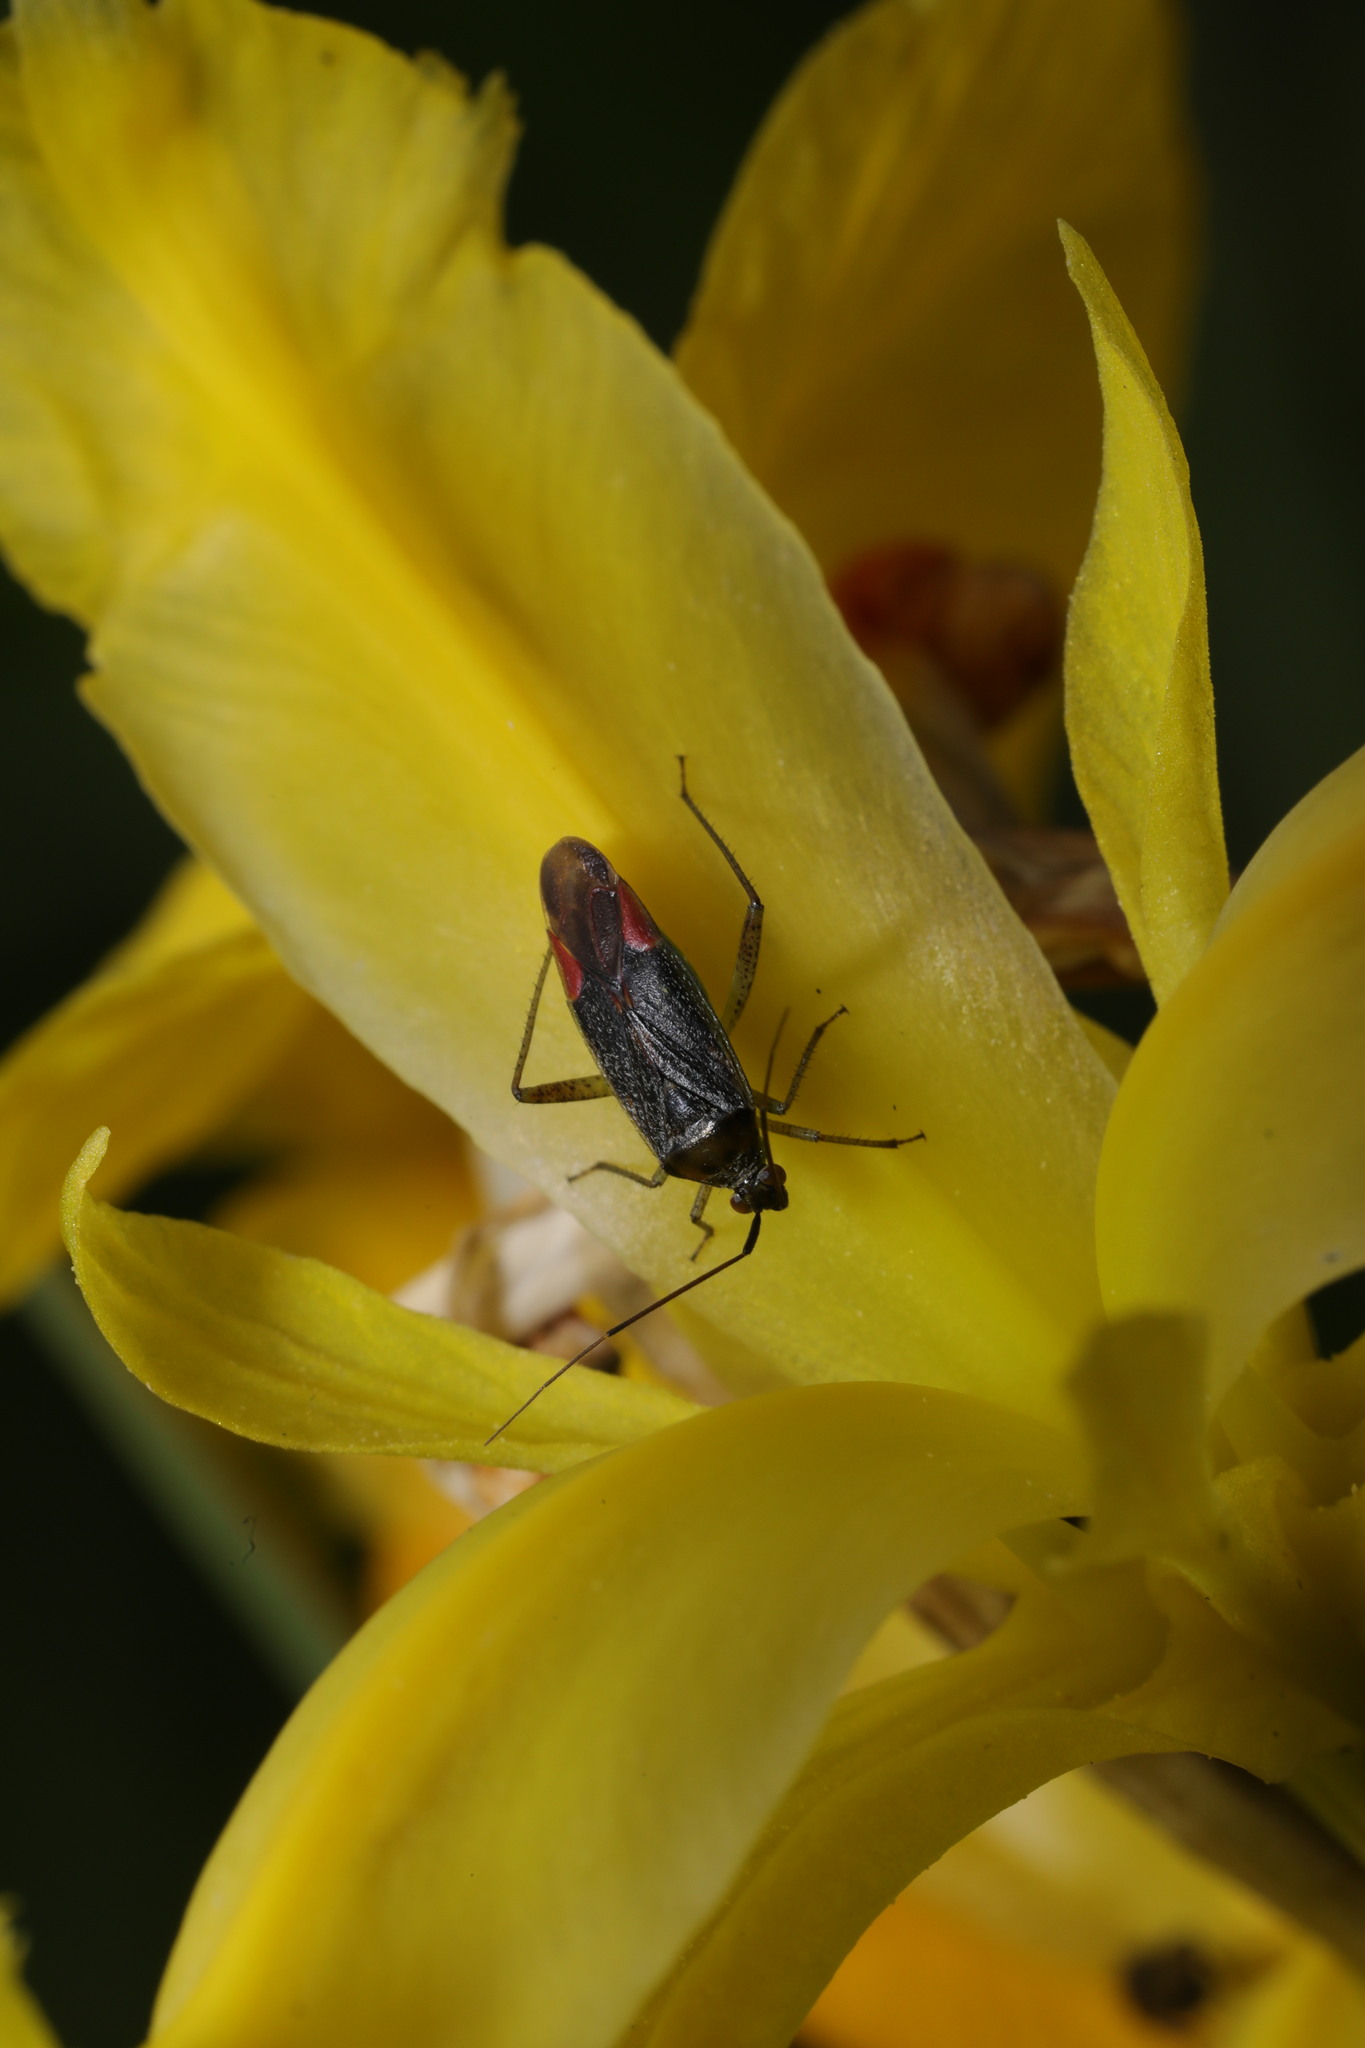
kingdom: Animalia
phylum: Arthropoda
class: Insecta
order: Hemiptera
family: Miridae
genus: Closterotomus
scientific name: Closterotomus trivialis
